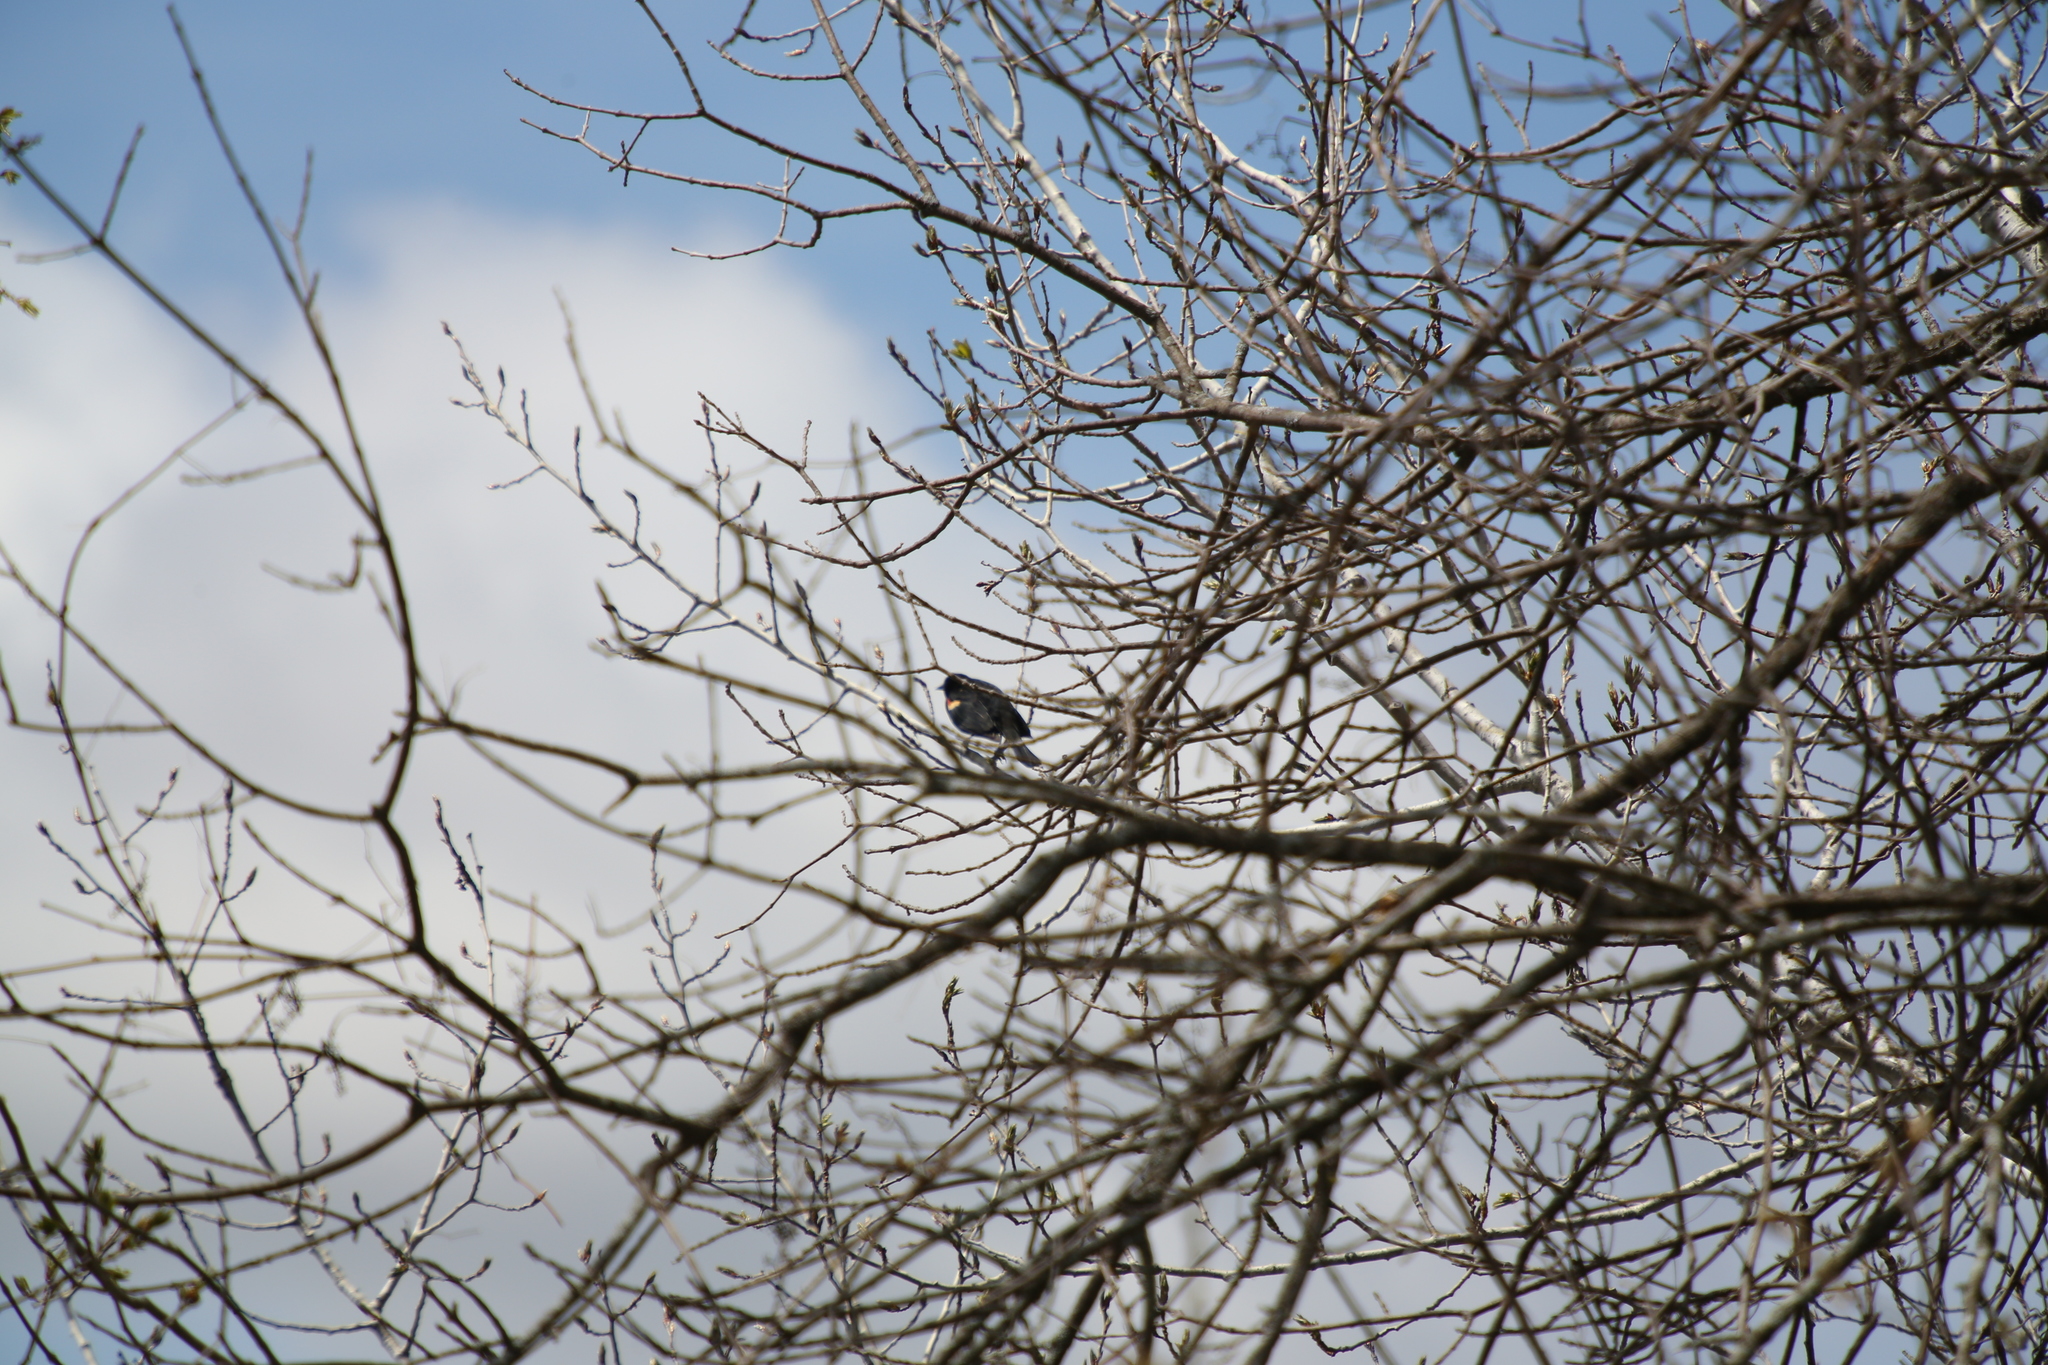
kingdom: Animalia
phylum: Chordata
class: Aves
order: Passeriformes
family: Icteridae
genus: Agelaius
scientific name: Agelaius phoeniceus
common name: Red-winged blackbird
